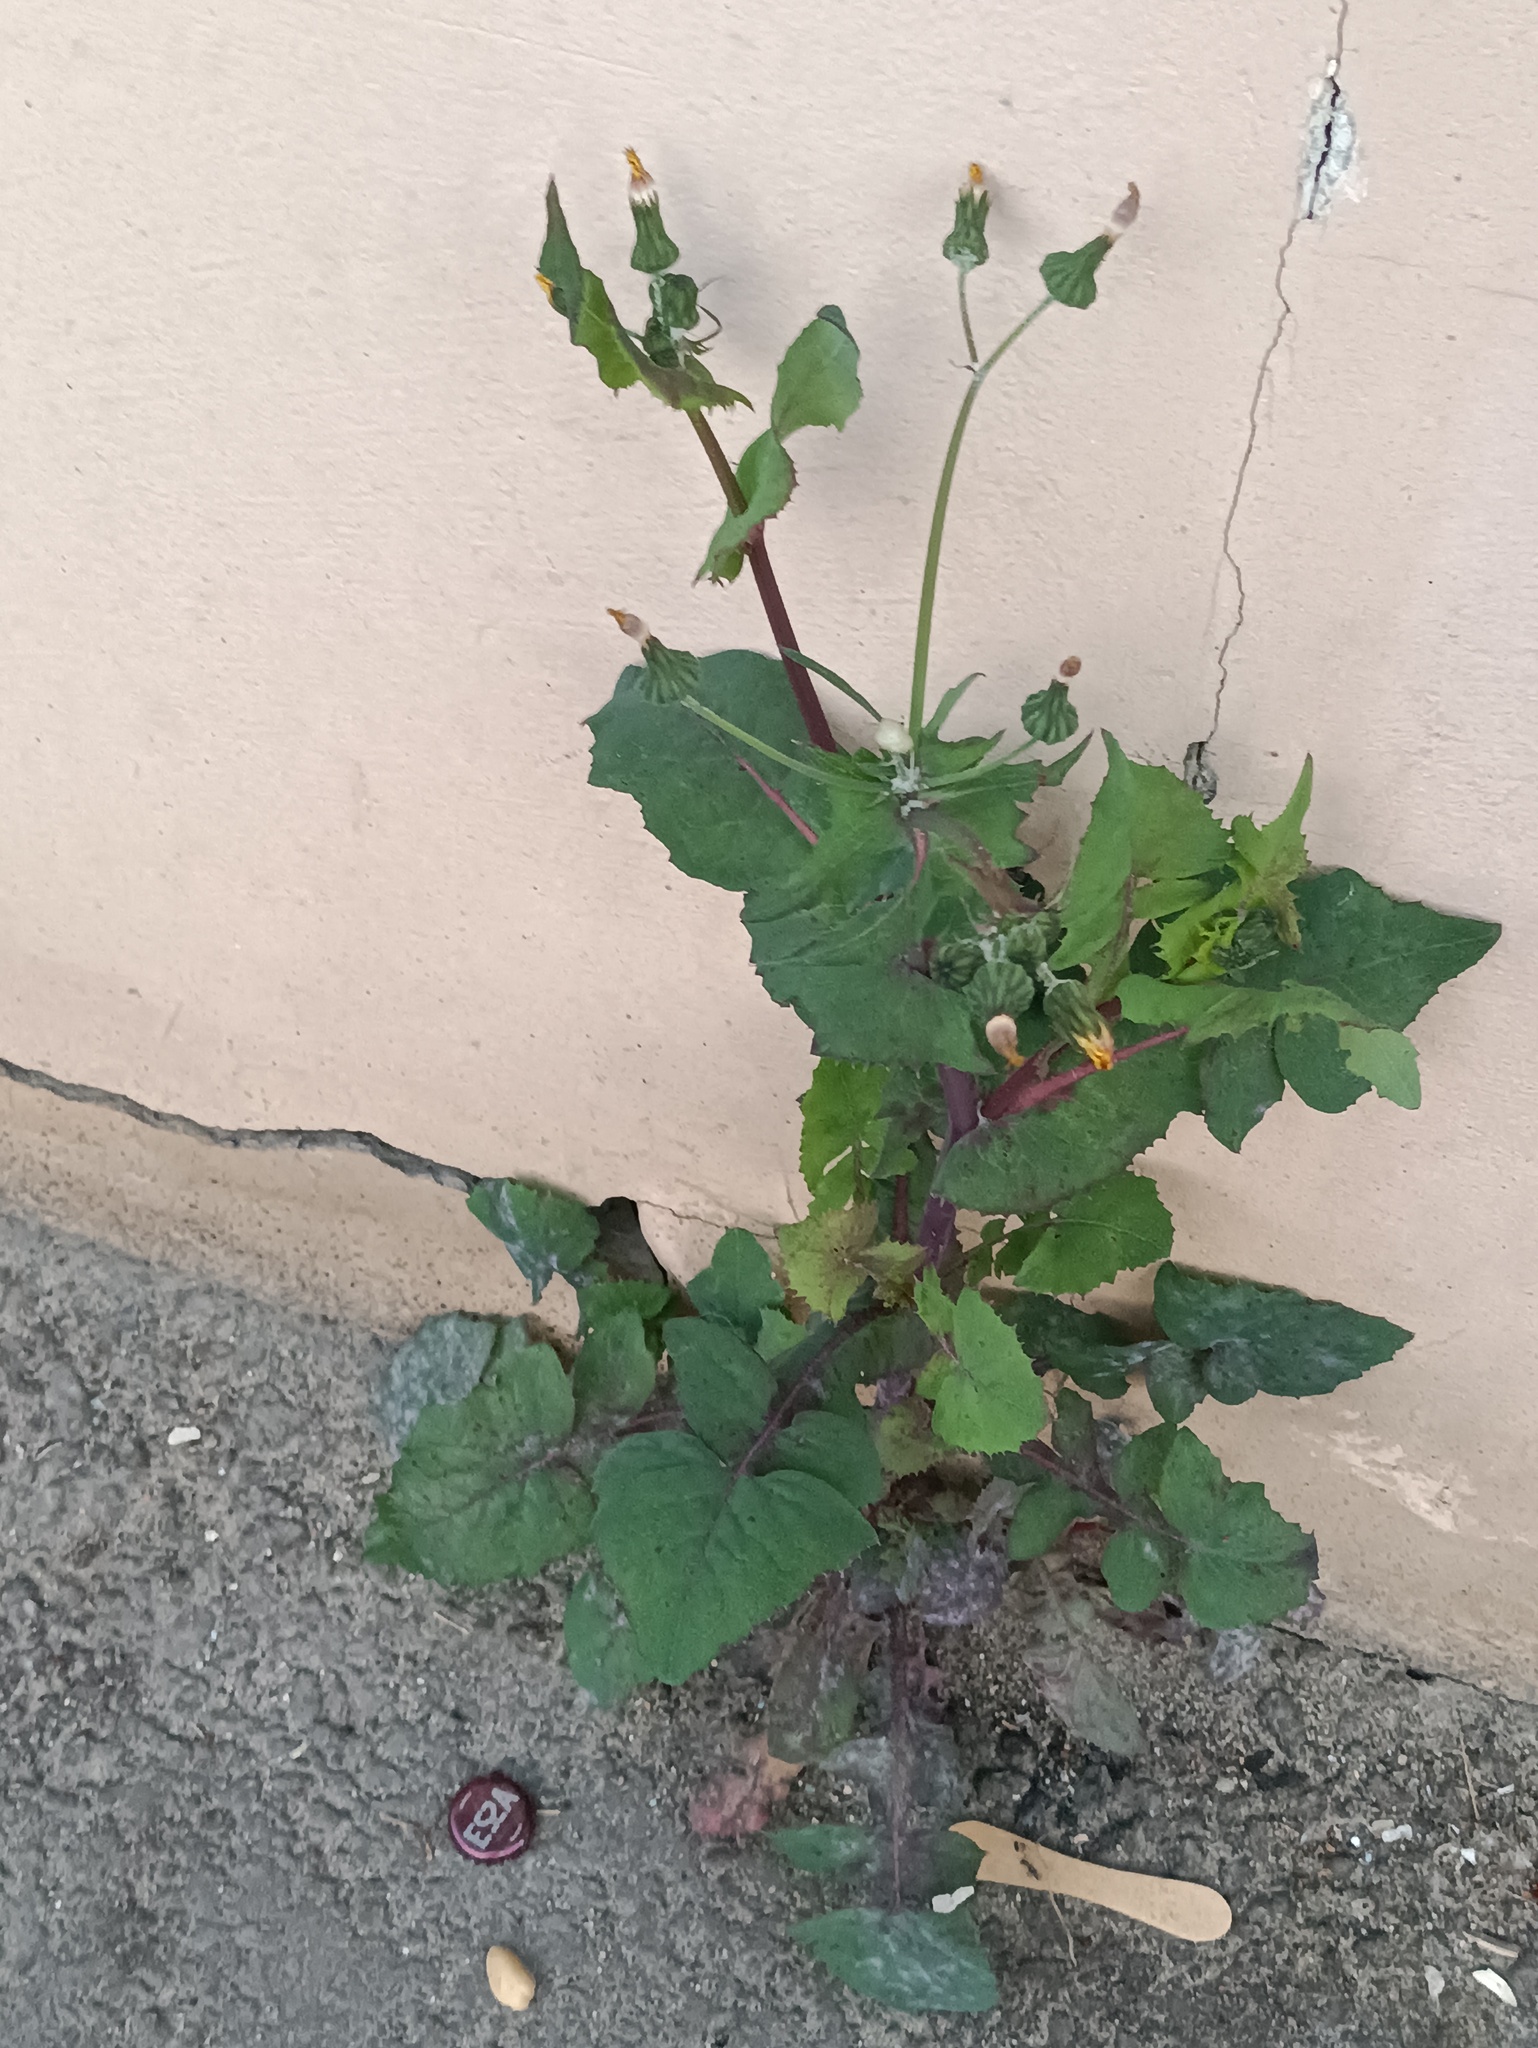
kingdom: Plantae
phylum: Tracheophyta
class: Magnoliopsida
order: Asterales
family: Asteraceae
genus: Sonchus
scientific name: Sonchus oleraceus
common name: Common sowthistle
